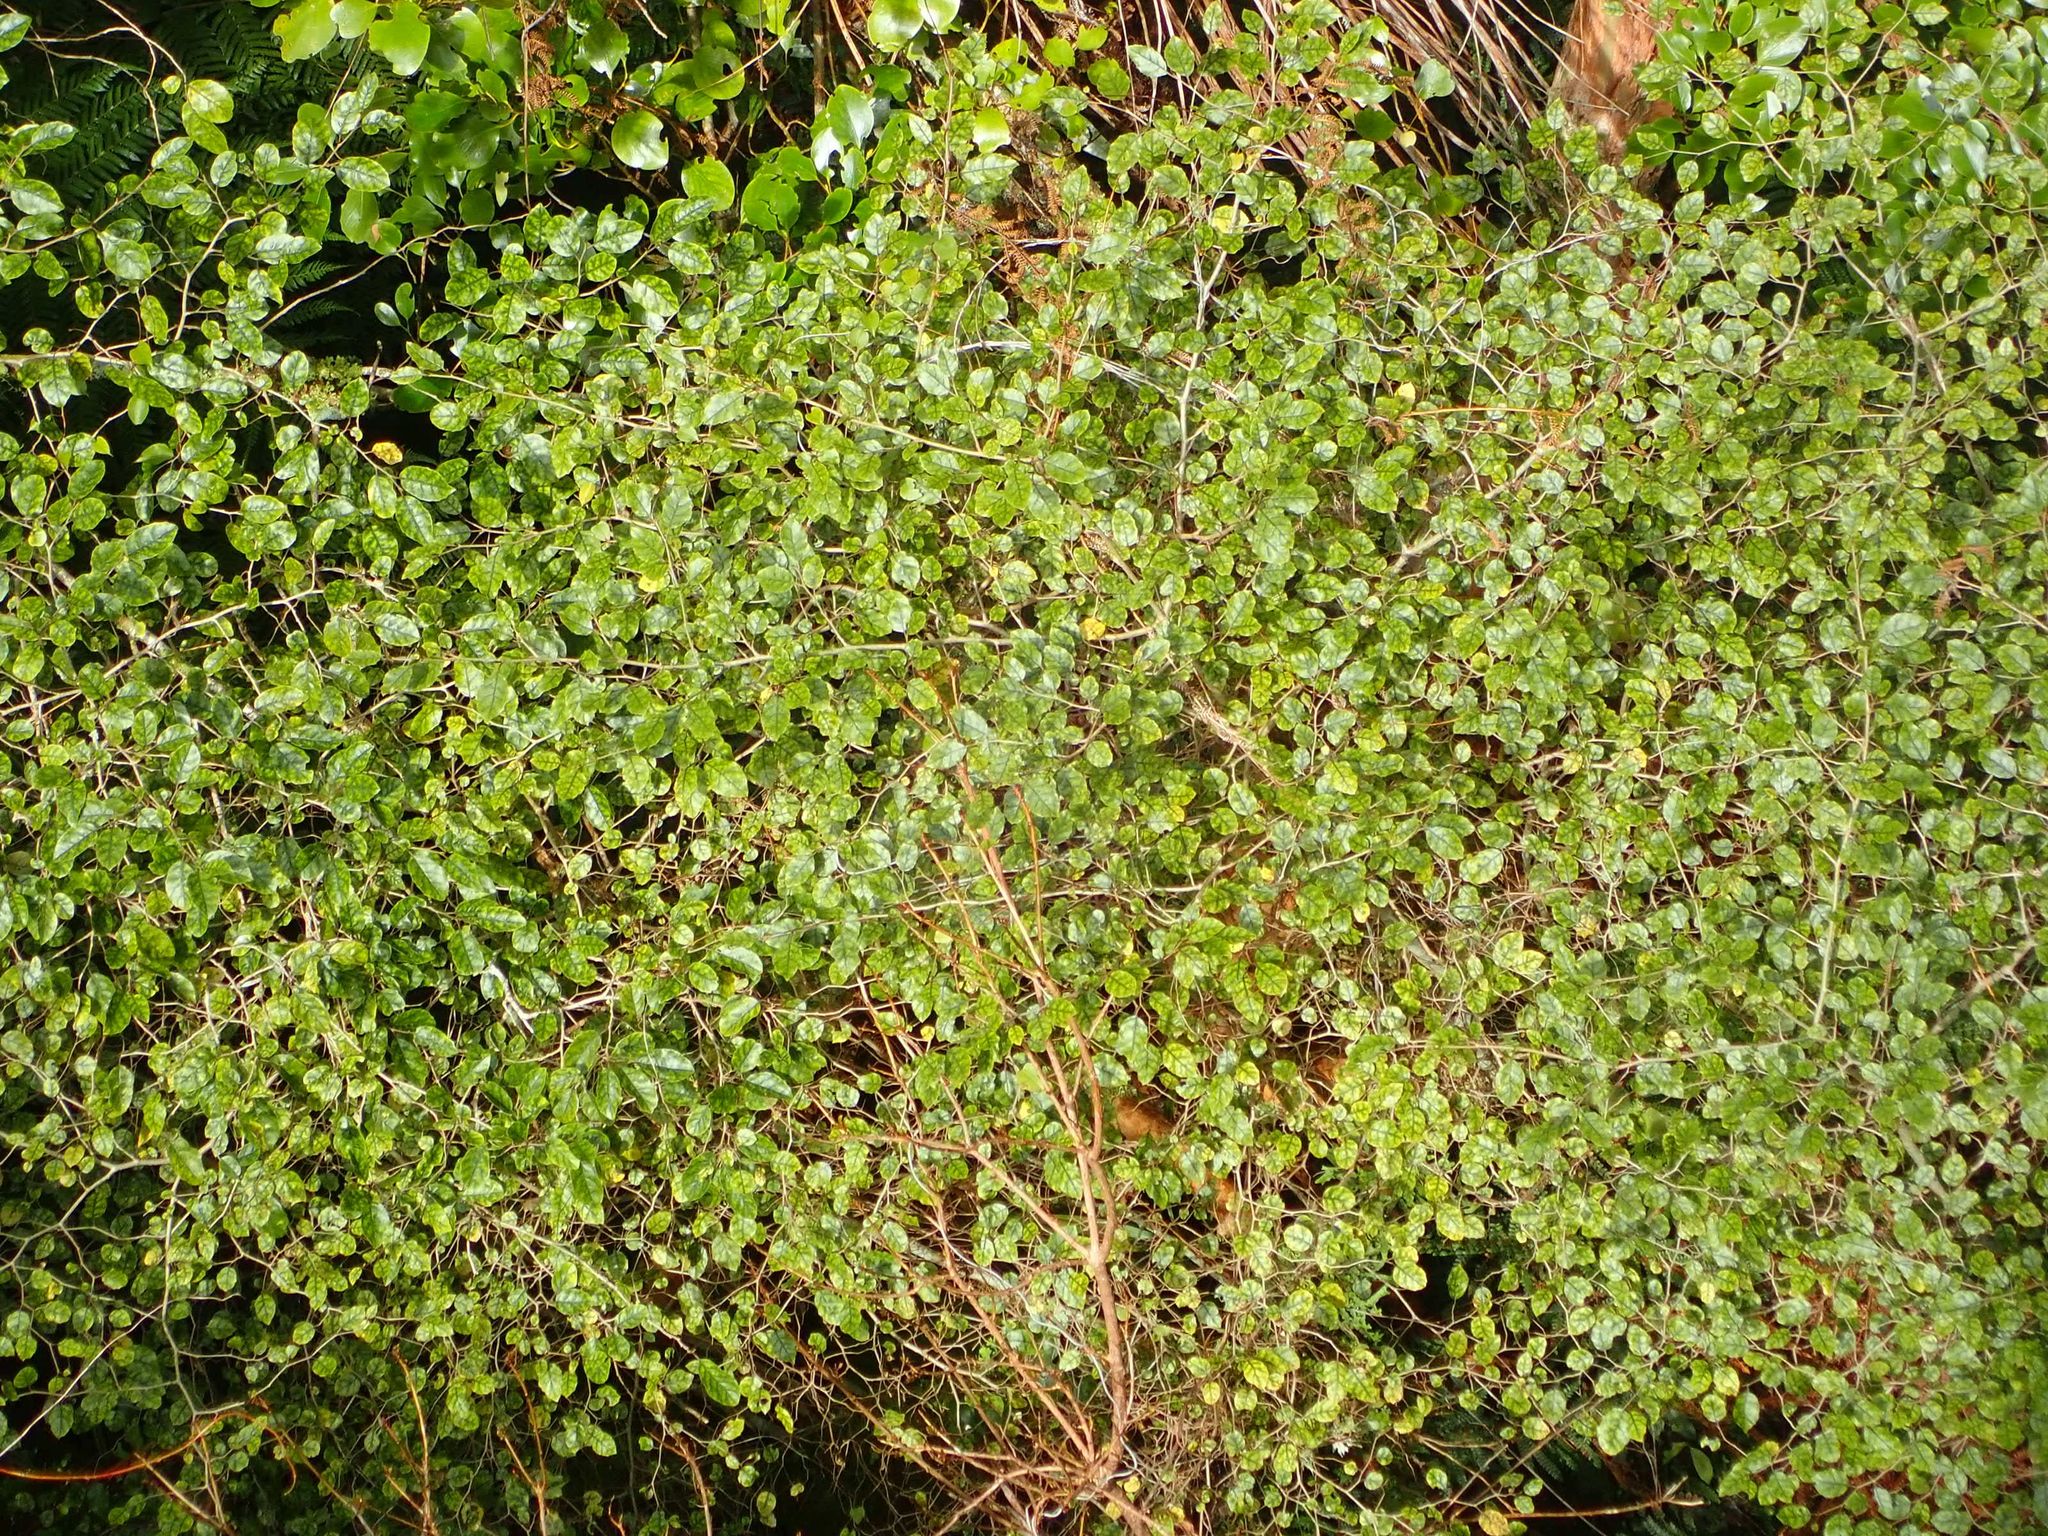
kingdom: Plantae
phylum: Tracheophyta
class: Magnoliopsida
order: Asterales
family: Rousseaceae
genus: Carpodetus
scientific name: Carpodetus serratus
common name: White mapau
